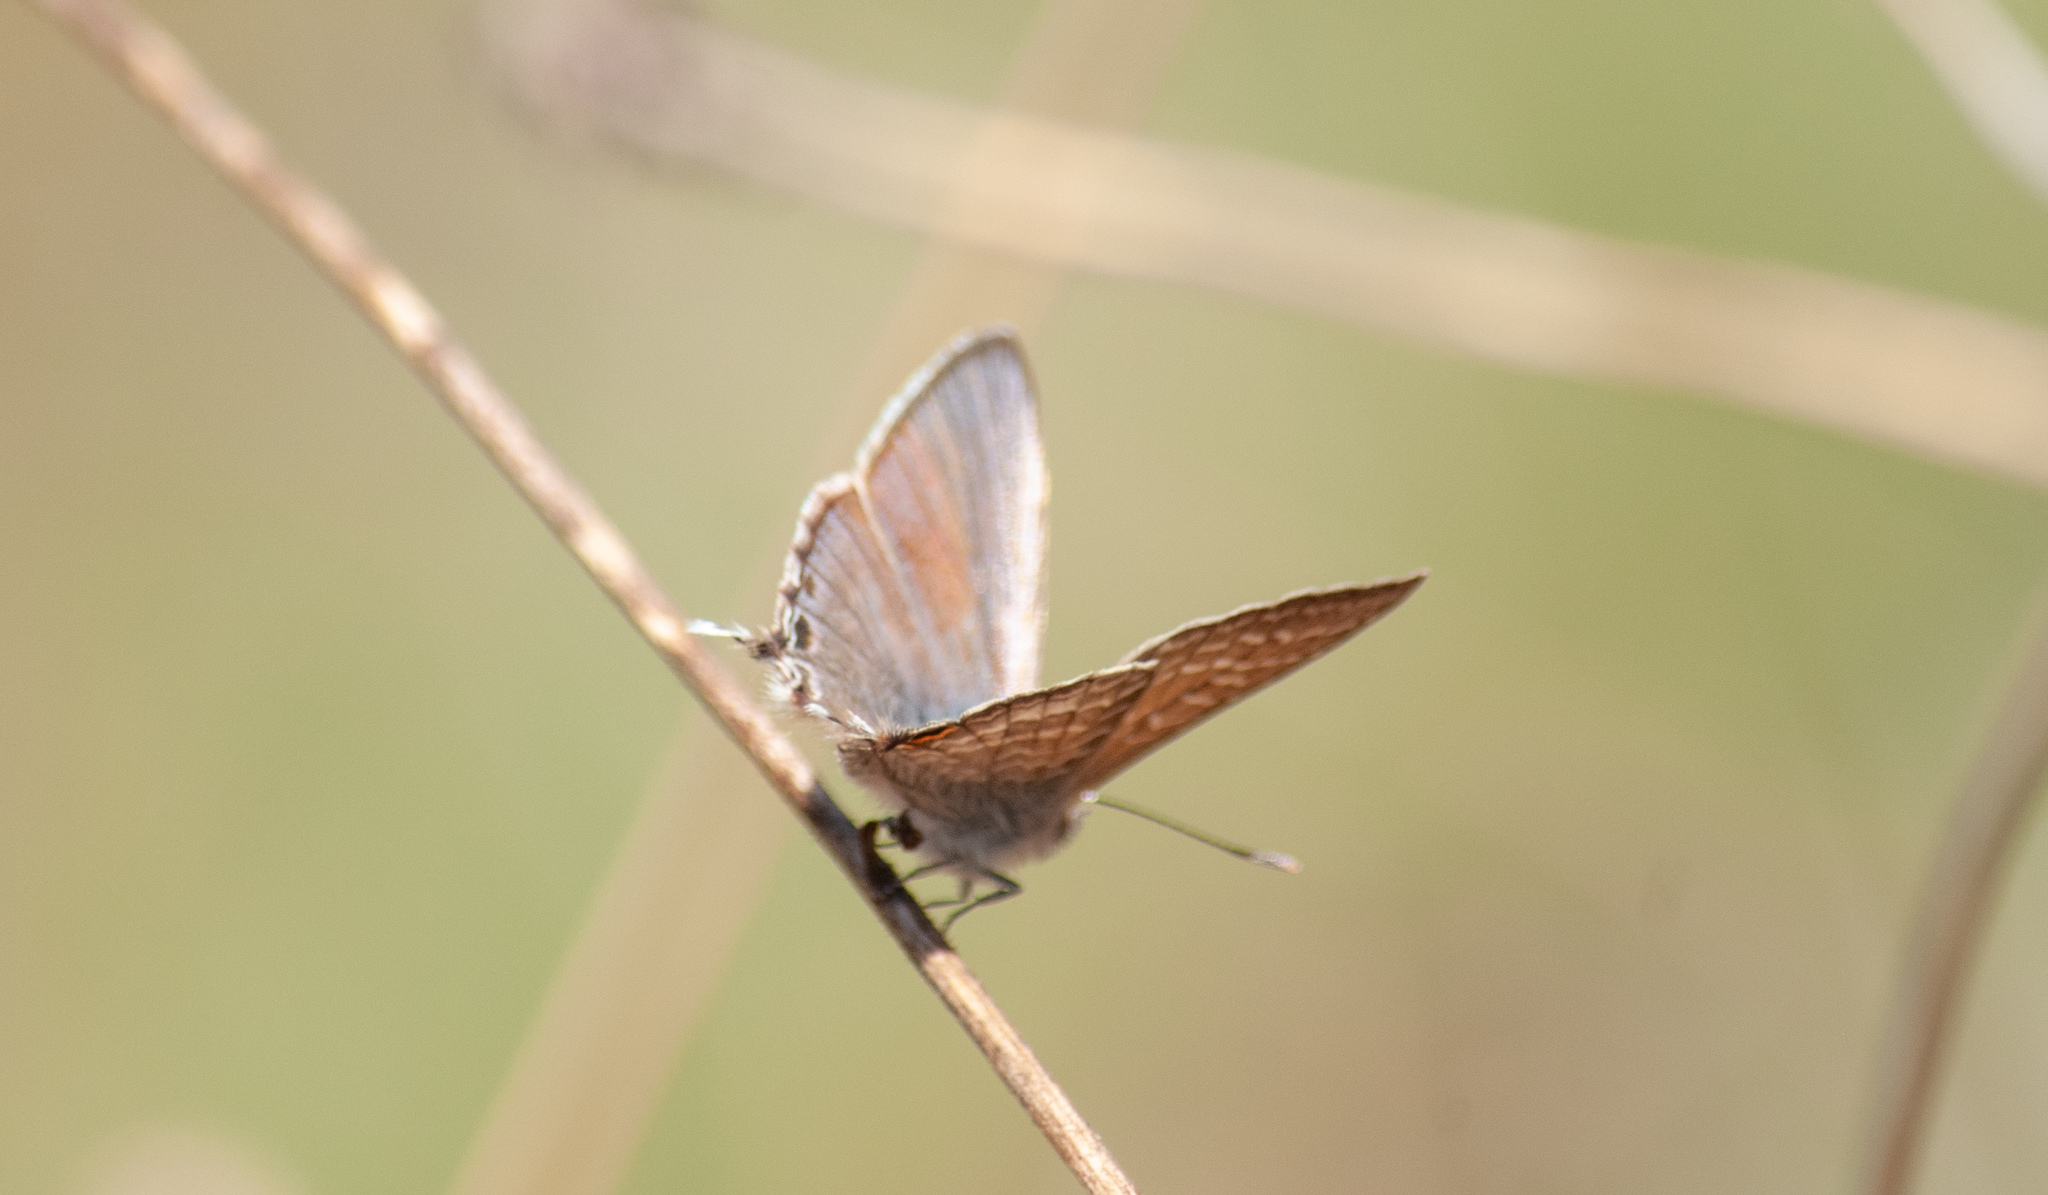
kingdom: Animalia
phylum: Arthropoda
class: Insecta
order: Lepidoptera
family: Lycaenidae
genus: Theclinesthes
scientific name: Theclinesthes miskini
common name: Wattle blue
